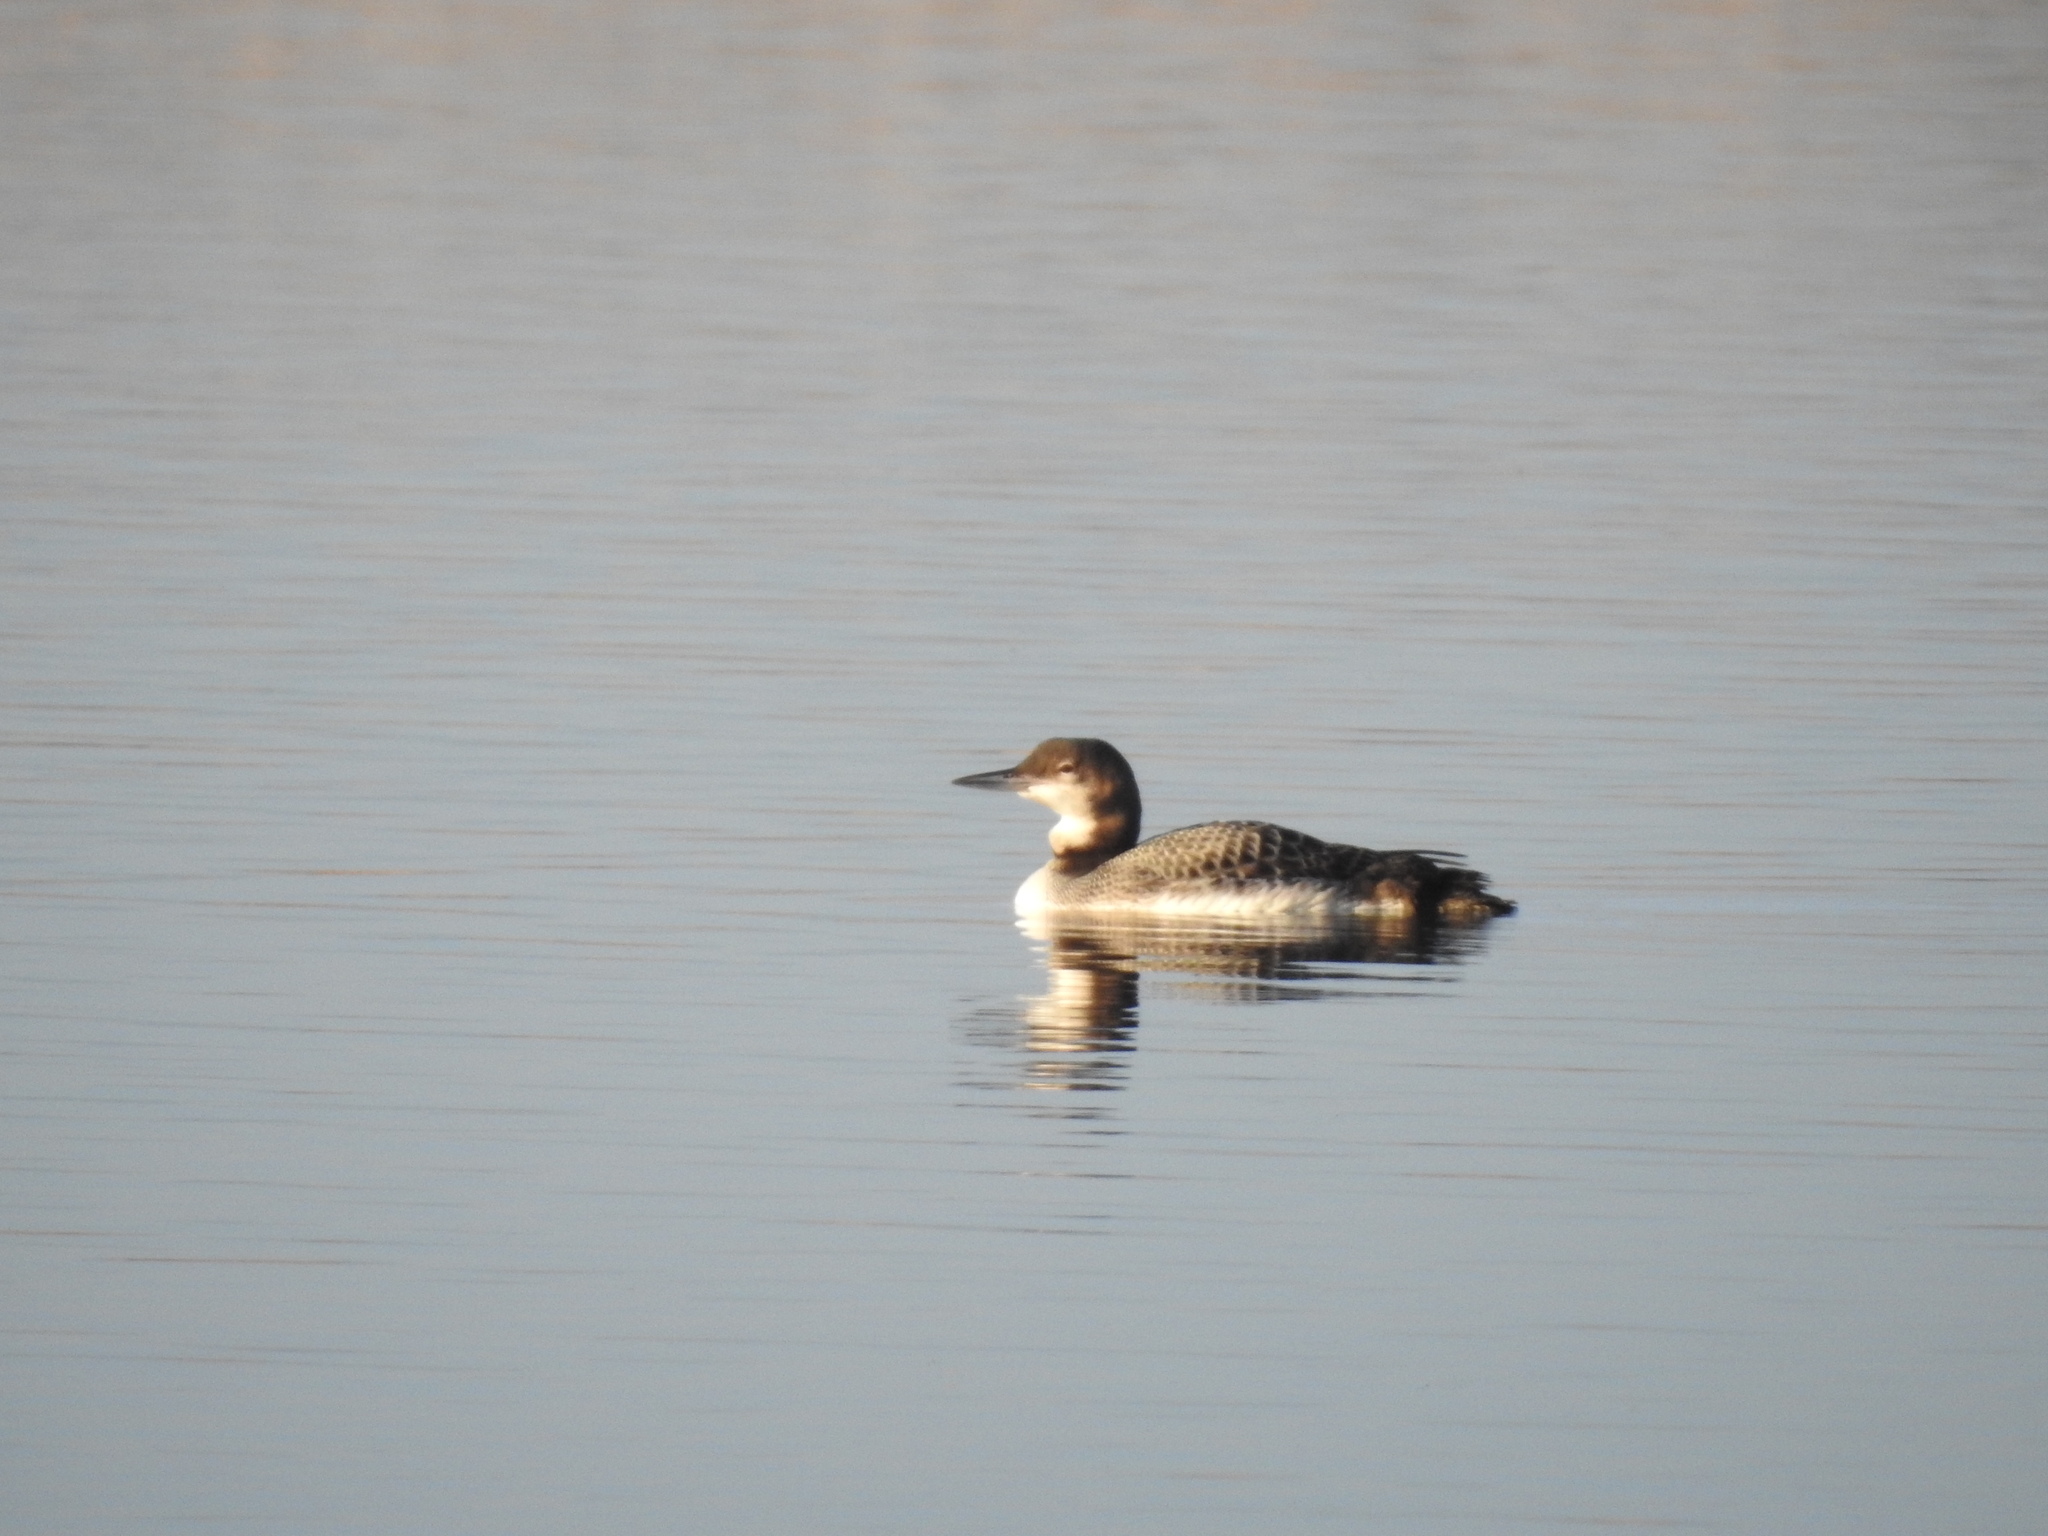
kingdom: Animalia
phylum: Chordata
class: Aves
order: Gaviiformes
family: Gaviidae
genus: Gavia
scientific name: Gavia immer
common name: Common loon
